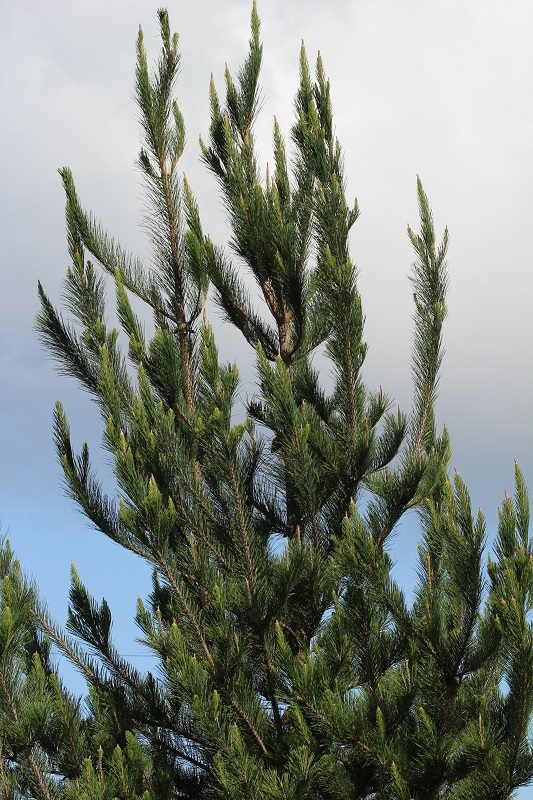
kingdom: Plantae
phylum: Tracheophyta
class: Pinopsida
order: Pinales
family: Pinaceae
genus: Pinus
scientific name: Pinus radiata
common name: Monterey pine
